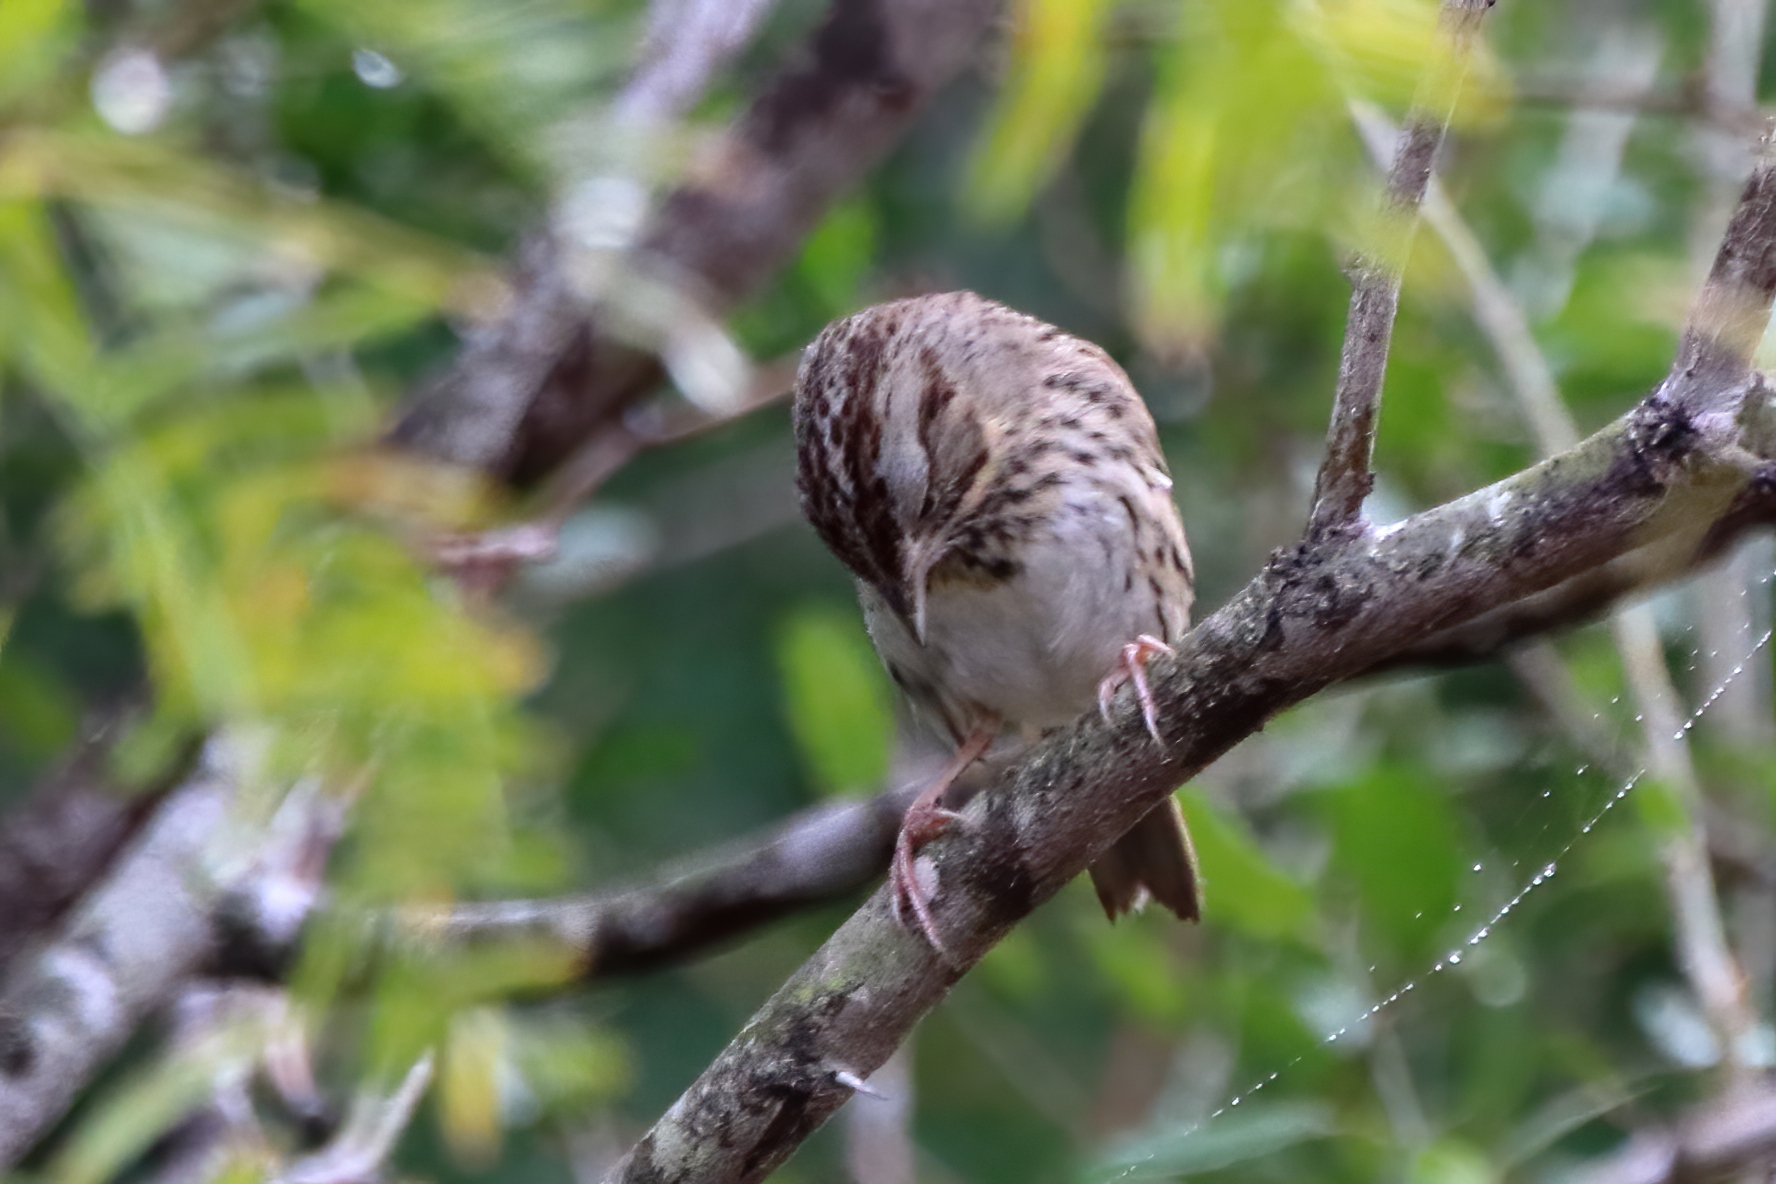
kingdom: Animalia
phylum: Chordata
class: Aves
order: Passeriformes
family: Passerellidae
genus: Melospiza
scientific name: Melospiza lincolnii
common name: Lincoln's sparrow
